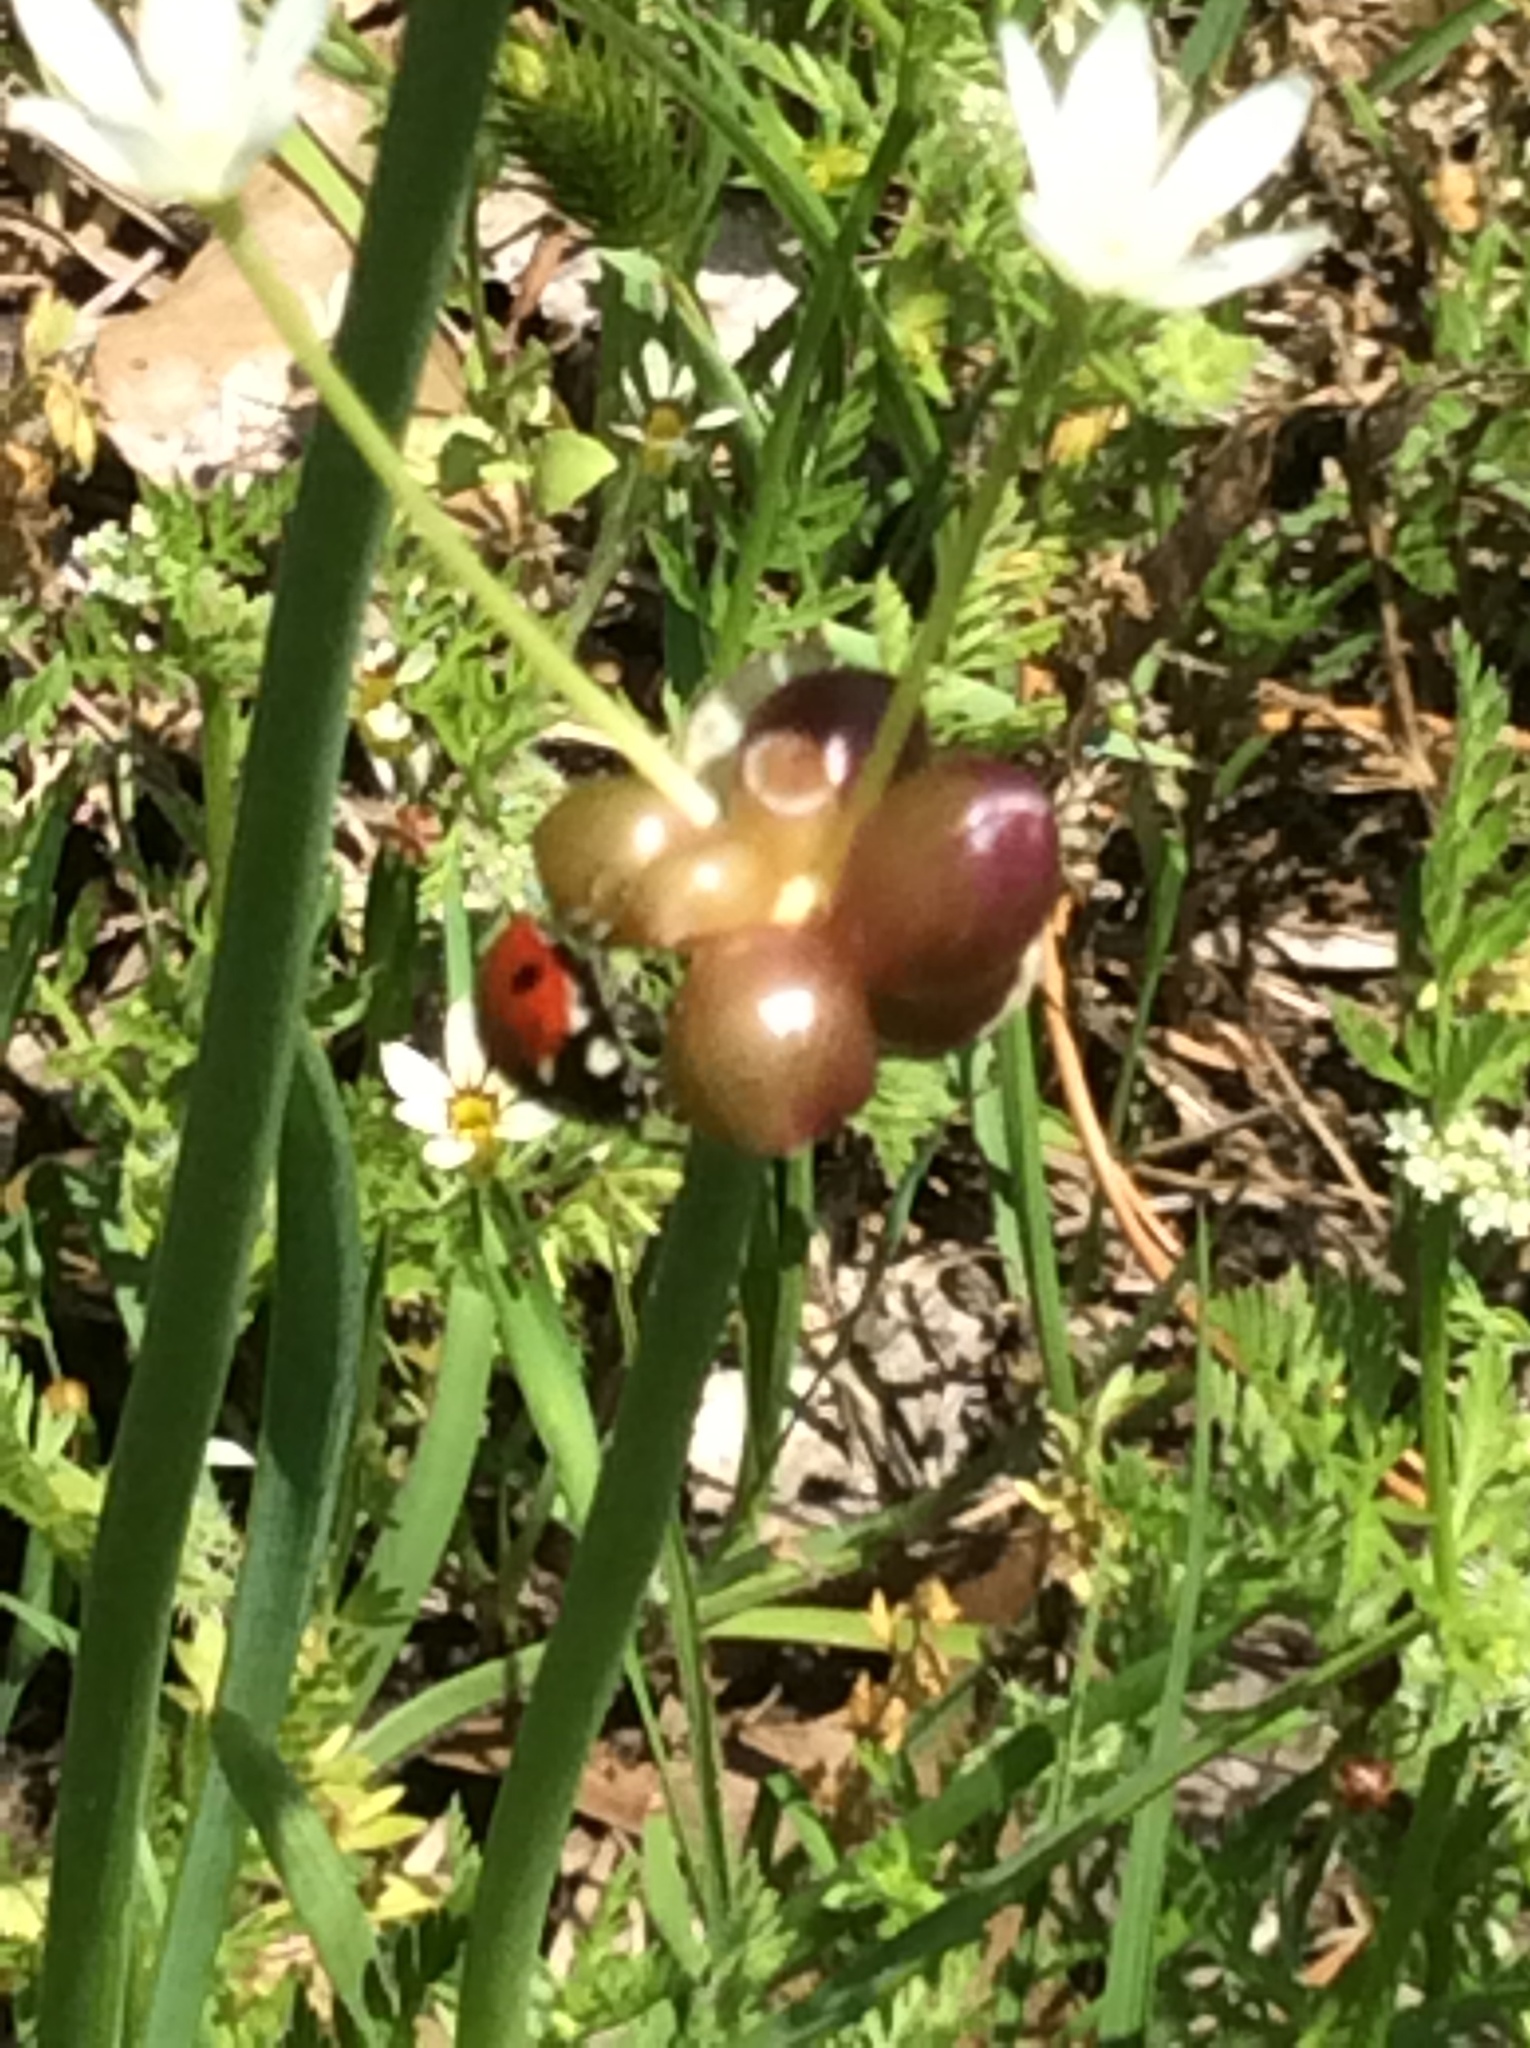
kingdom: Animalia
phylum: Arthropoda
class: Insecta
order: Coleoptera
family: Coccinellidae
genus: Coccinella
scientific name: Coccinella septempunctata
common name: Sevenspotted lady beetle
